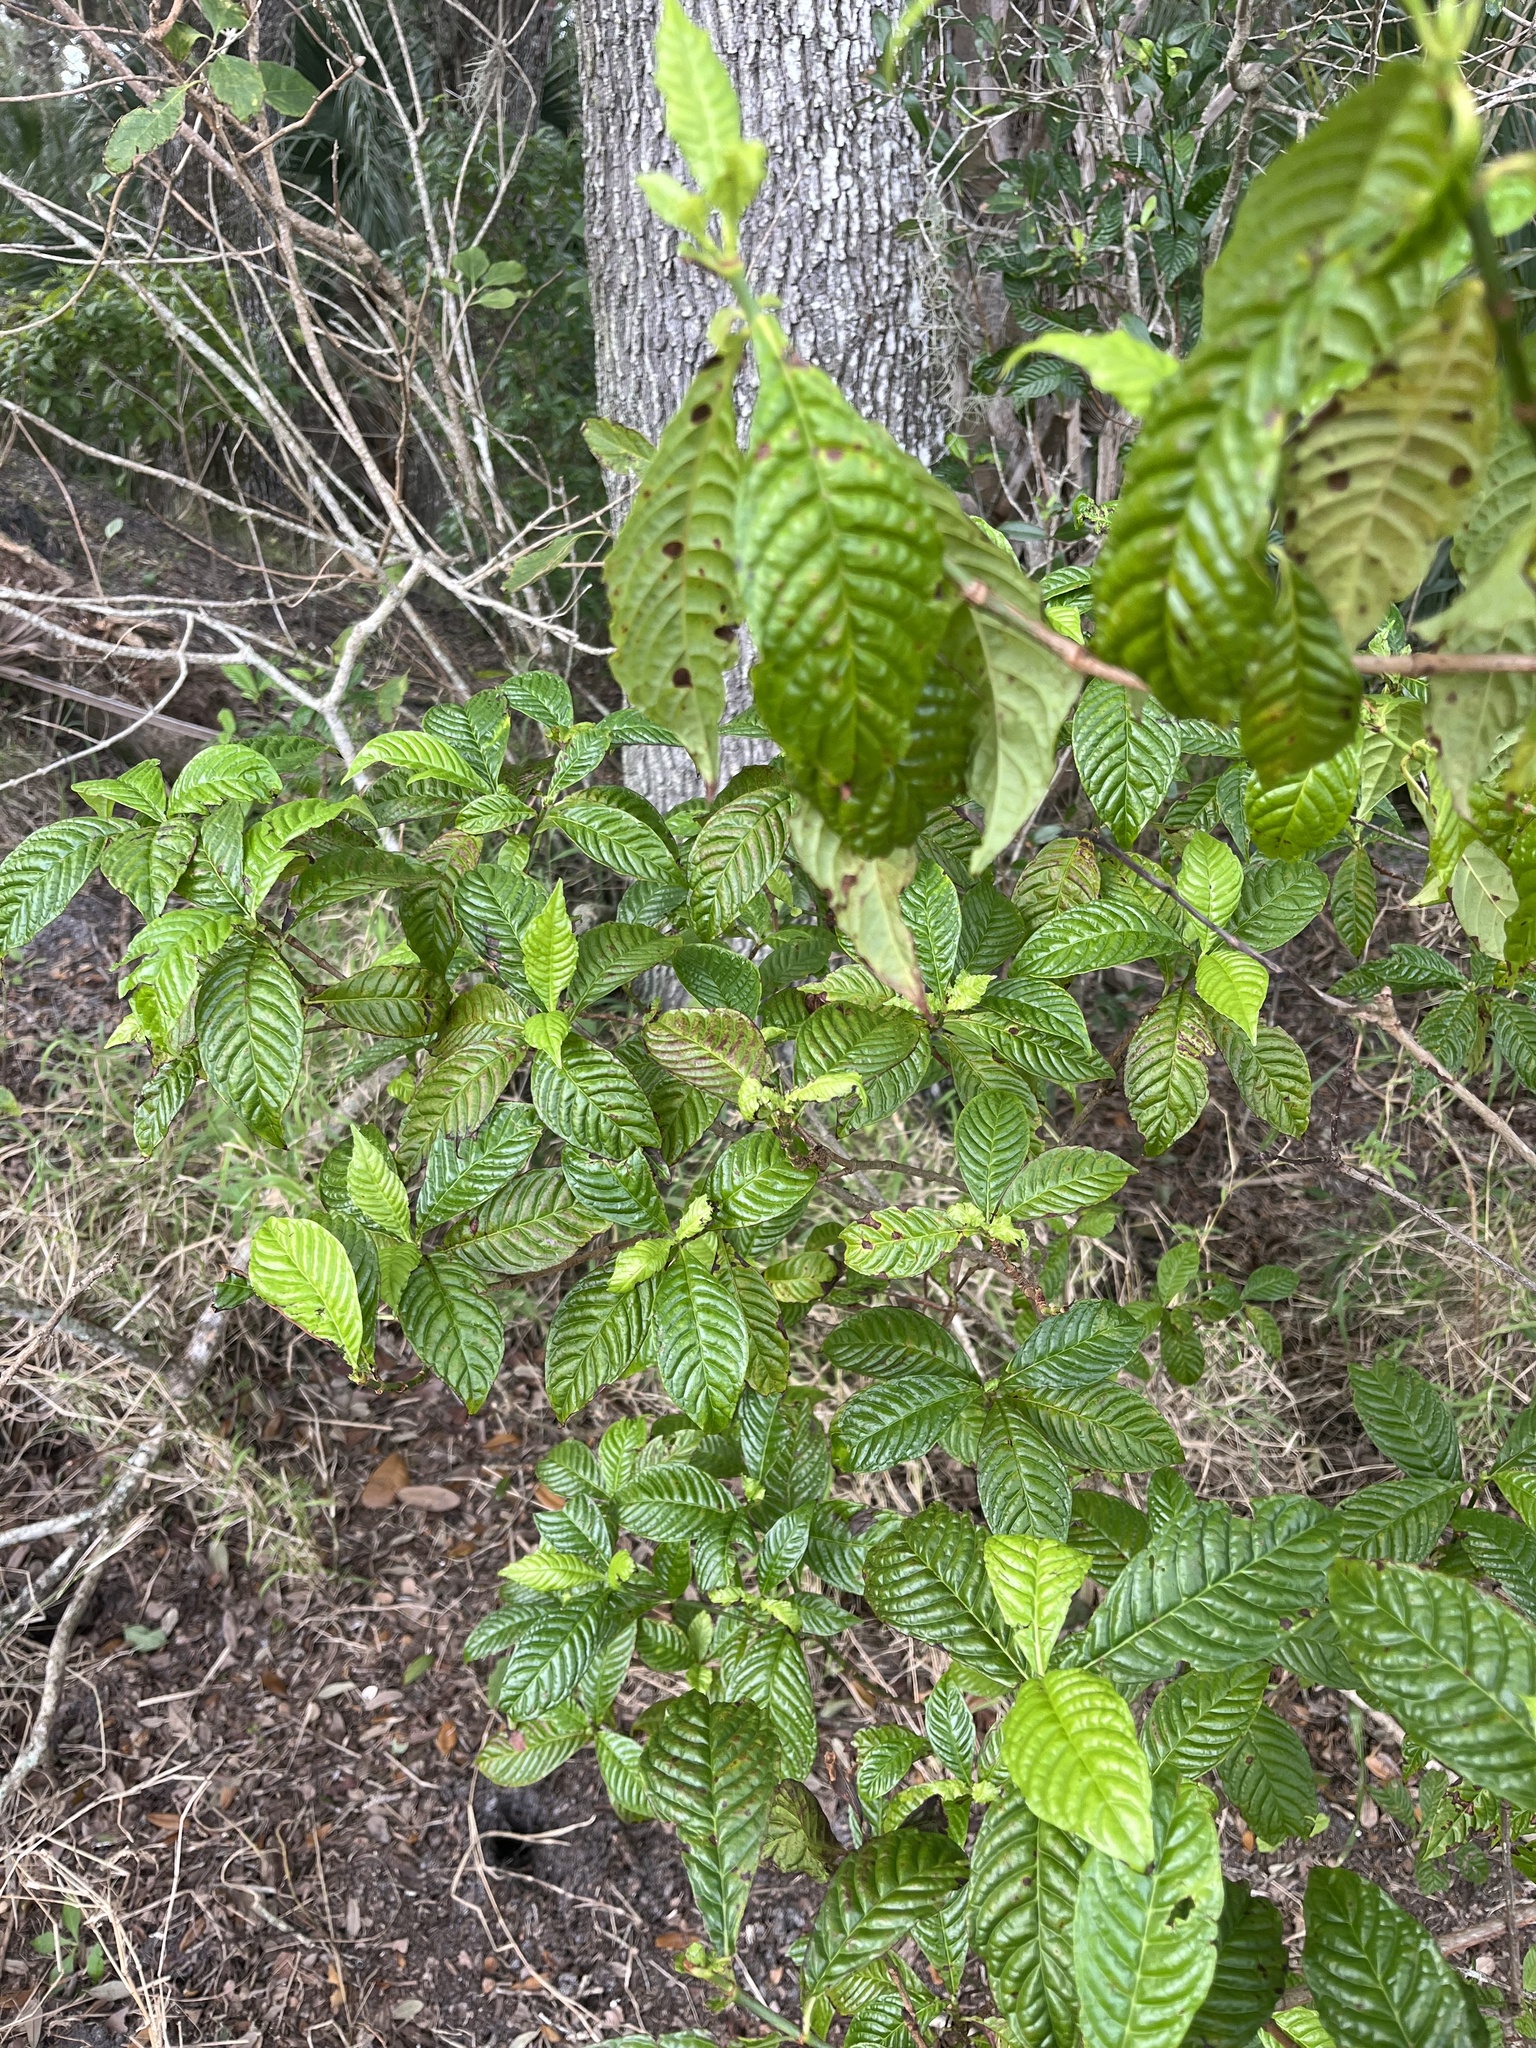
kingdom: Plantae
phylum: Tracheophyta
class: Magnoliopsida
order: Gentianales
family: Rubiaceae
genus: Psychotria
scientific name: Psychotria nervosa
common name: Bastard cankerberry
